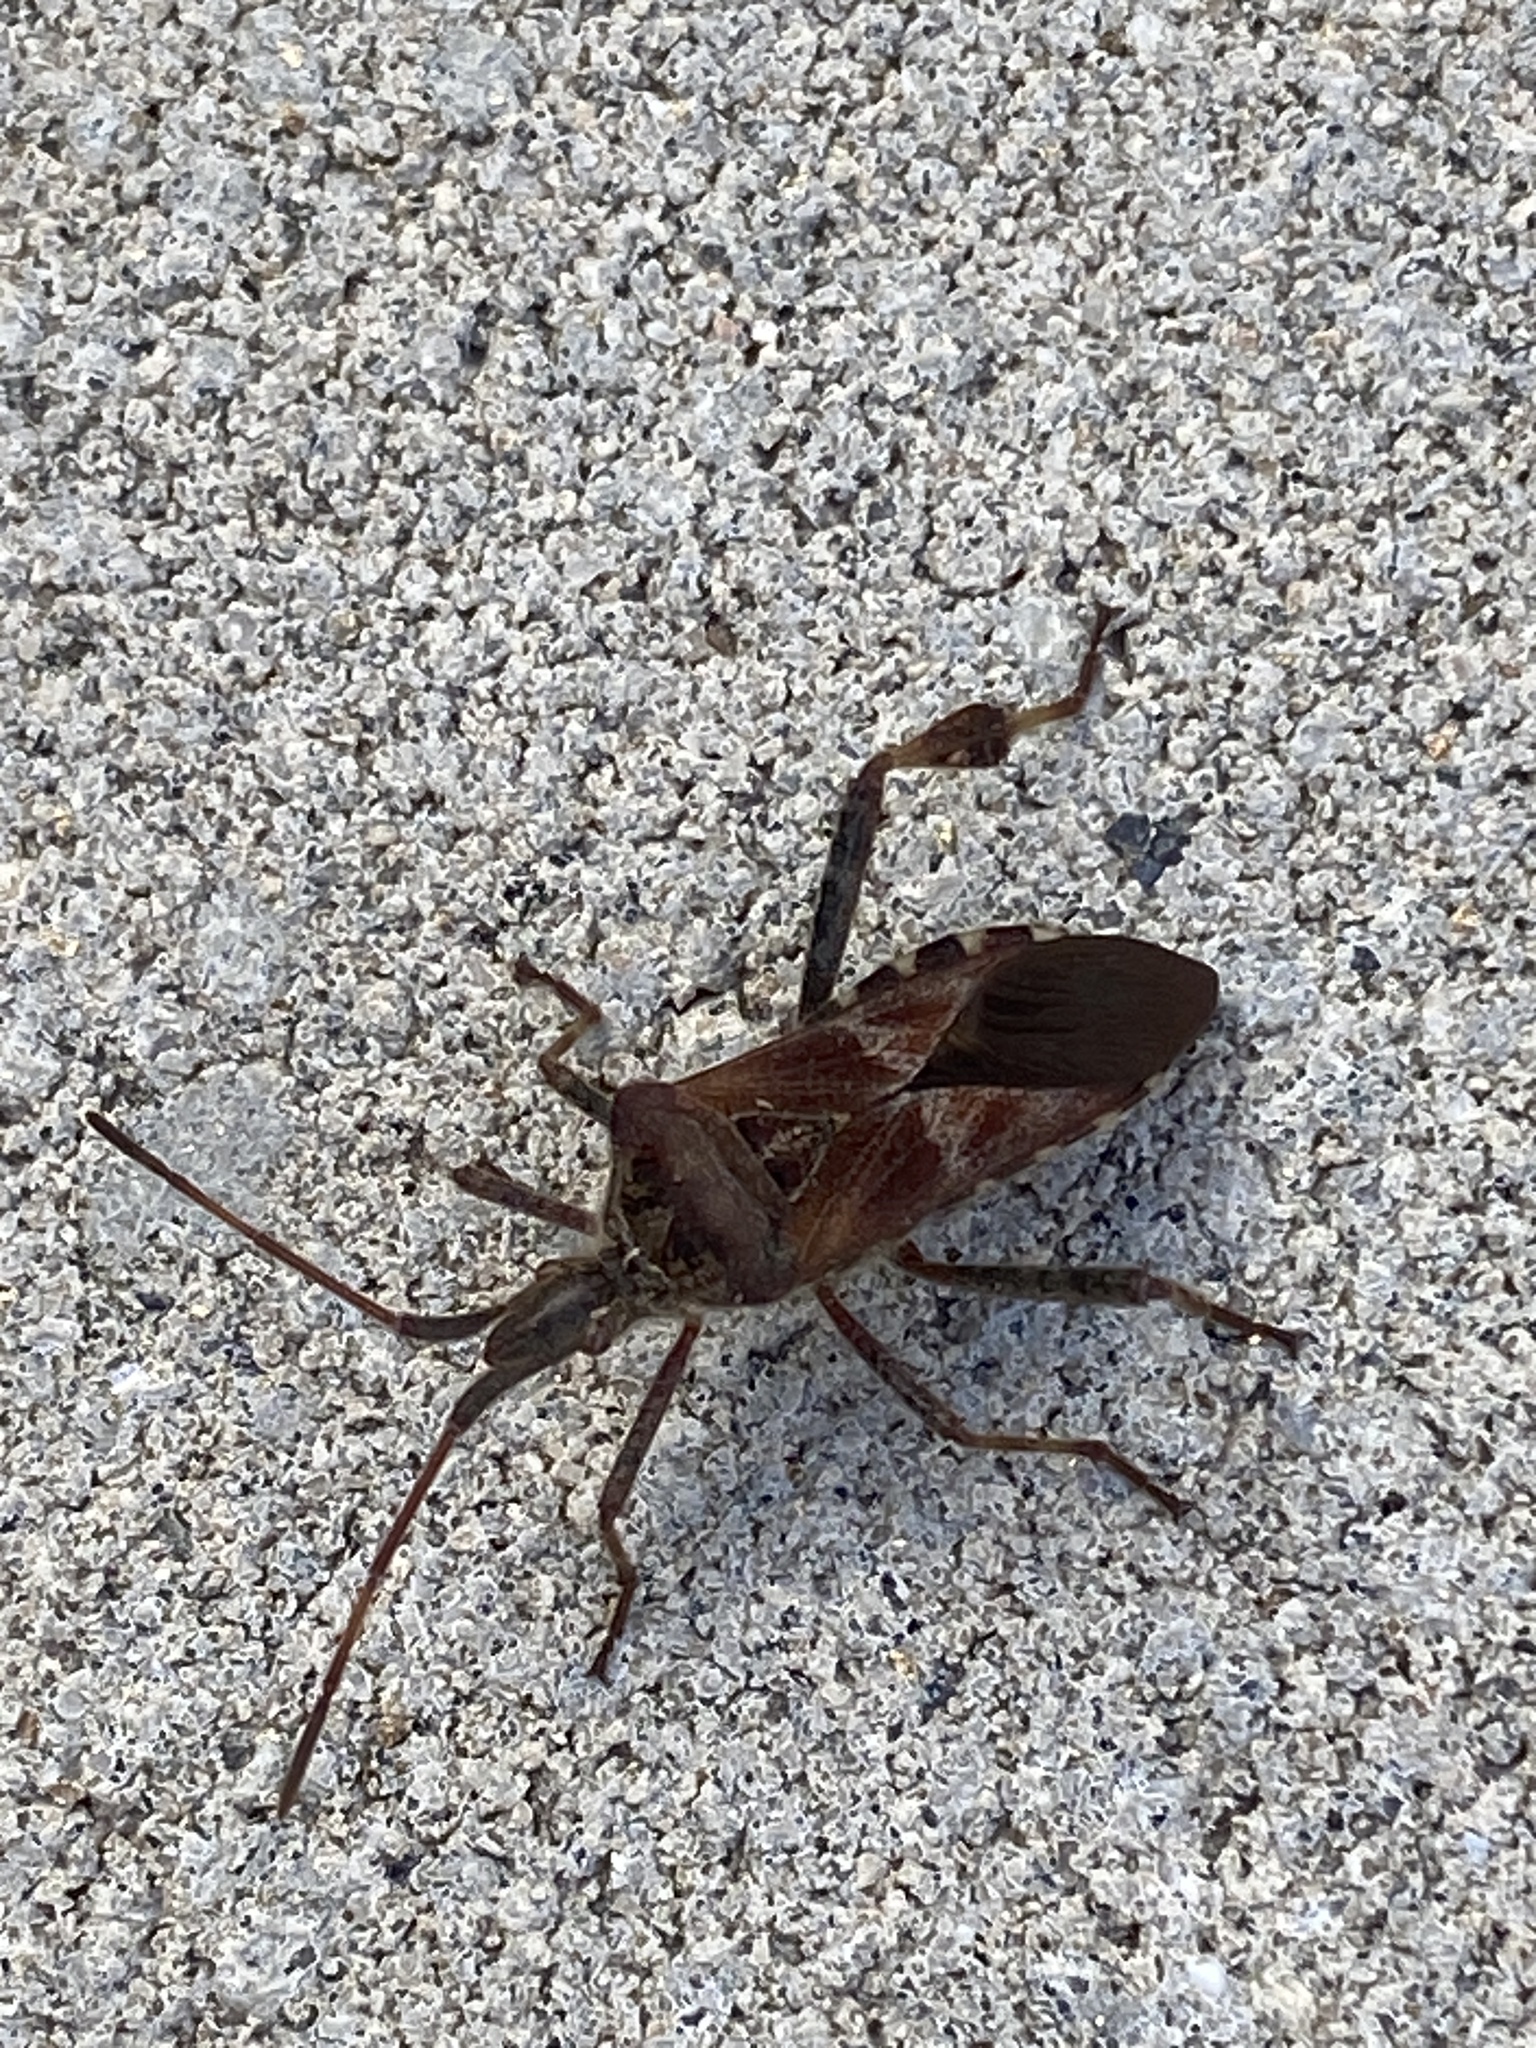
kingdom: Animalia
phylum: Arthropoda
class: Insecta
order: Hemiptera
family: Coreidae
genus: Leptoglossus
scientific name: Leptoglossus occidentalis
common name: Western conifer-seed bug
